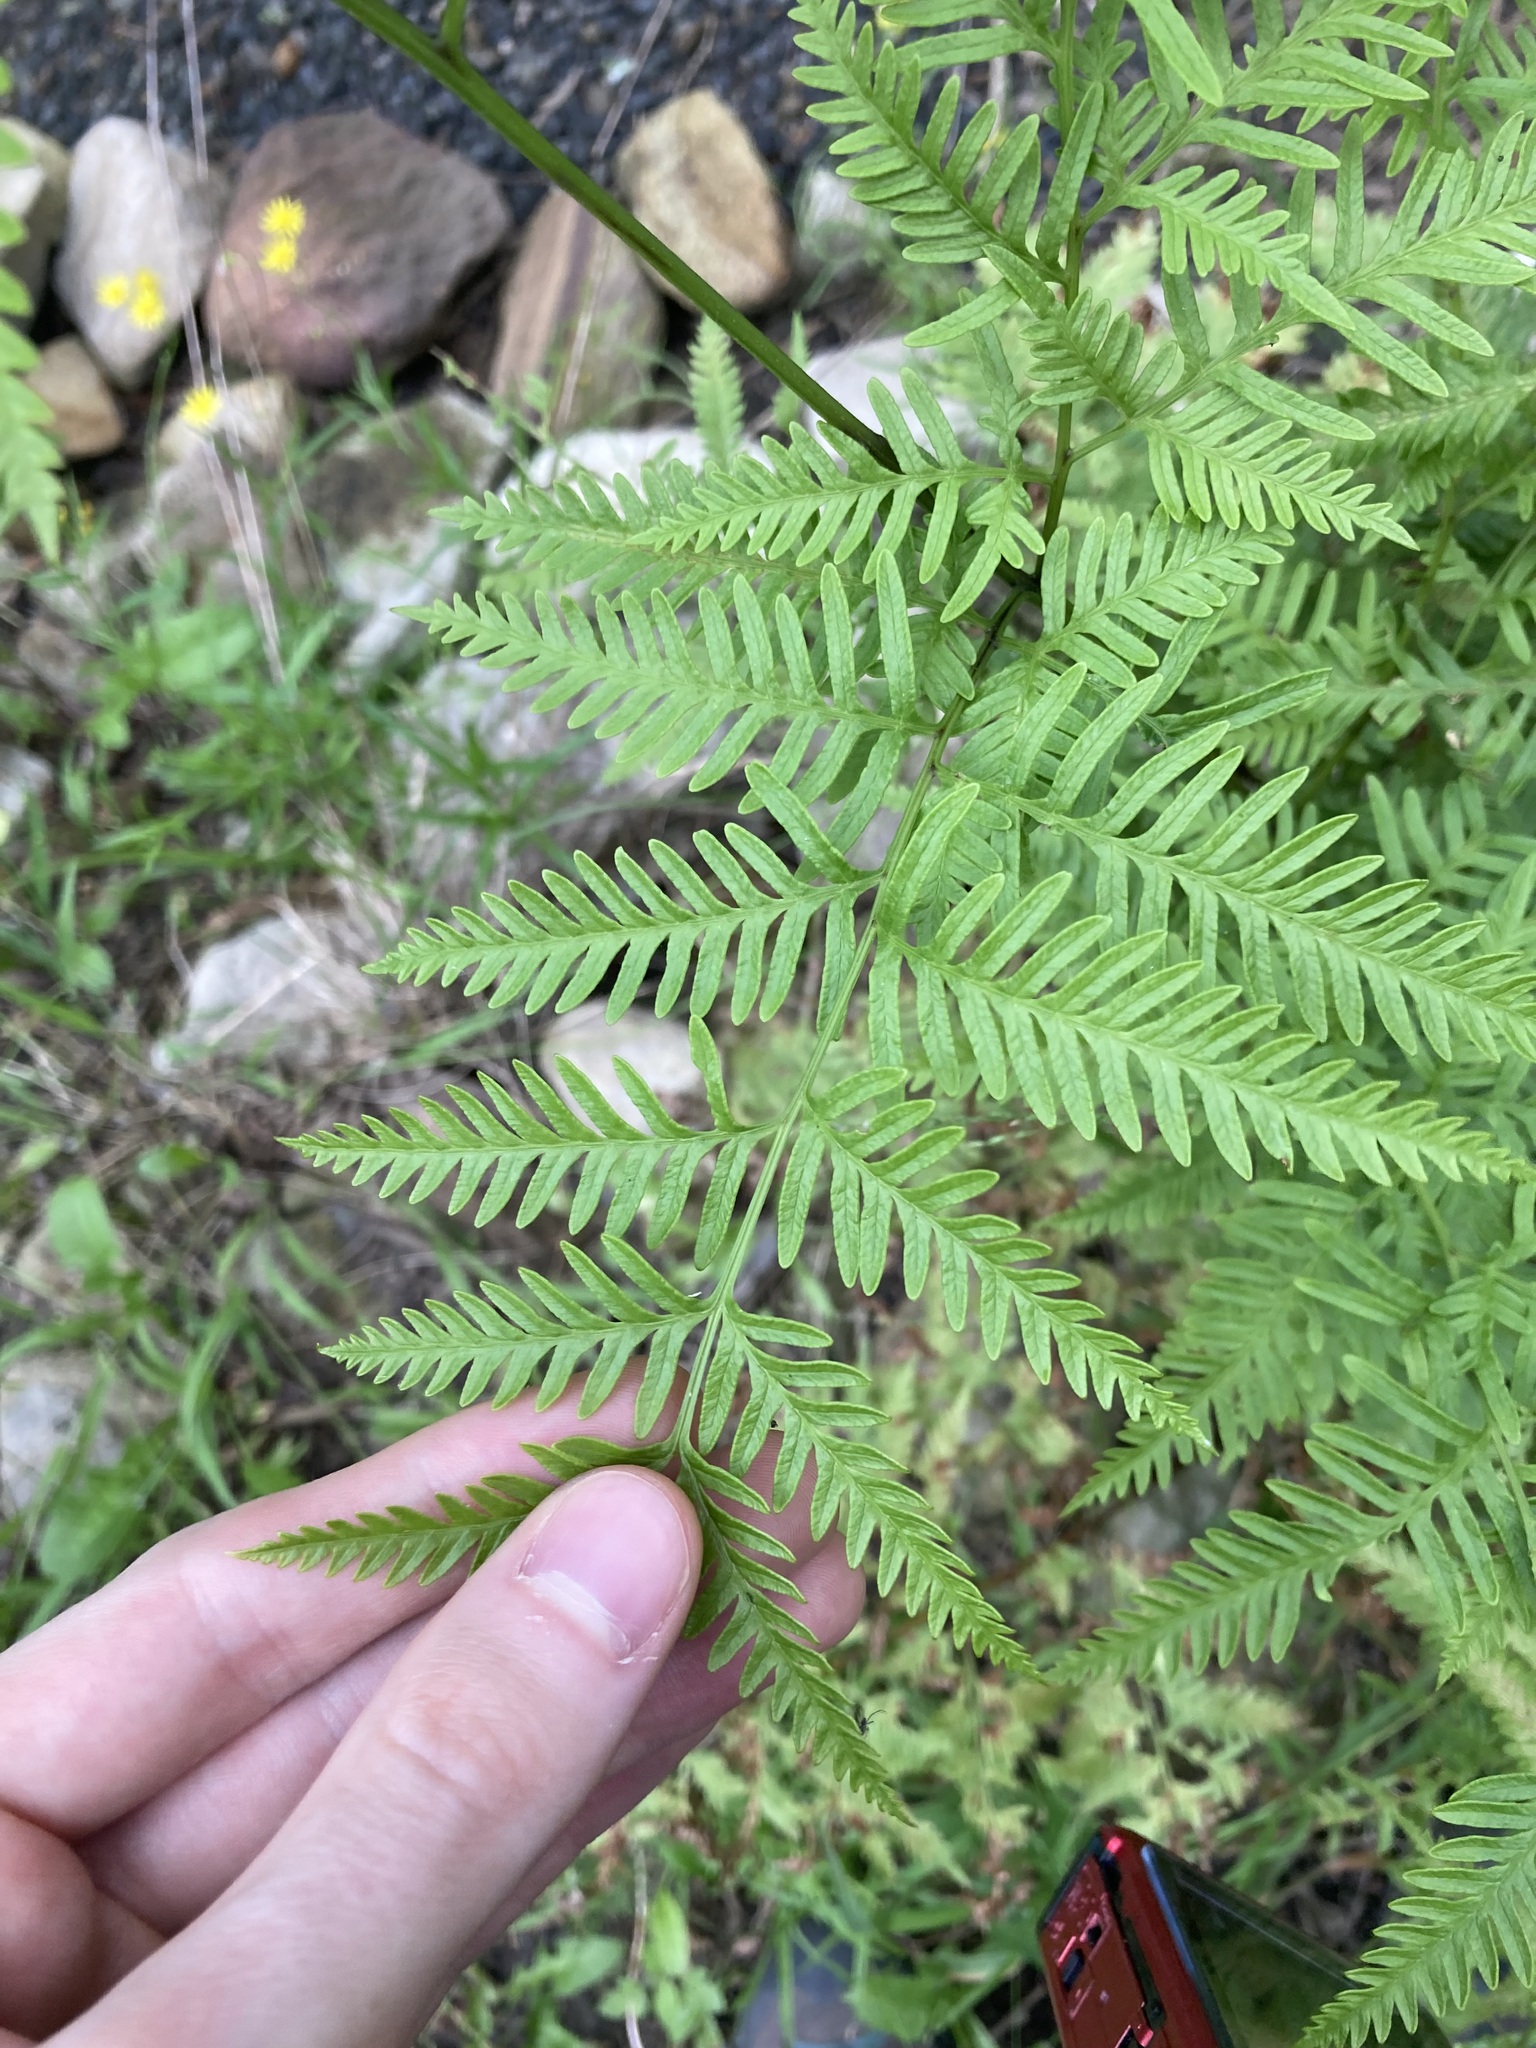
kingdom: Plantae
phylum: Tracheophyta
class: Polypodiopsida
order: Polypodiales
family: Pteridaceae
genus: Pteris
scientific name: Pteris tremula
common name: Australian brake
